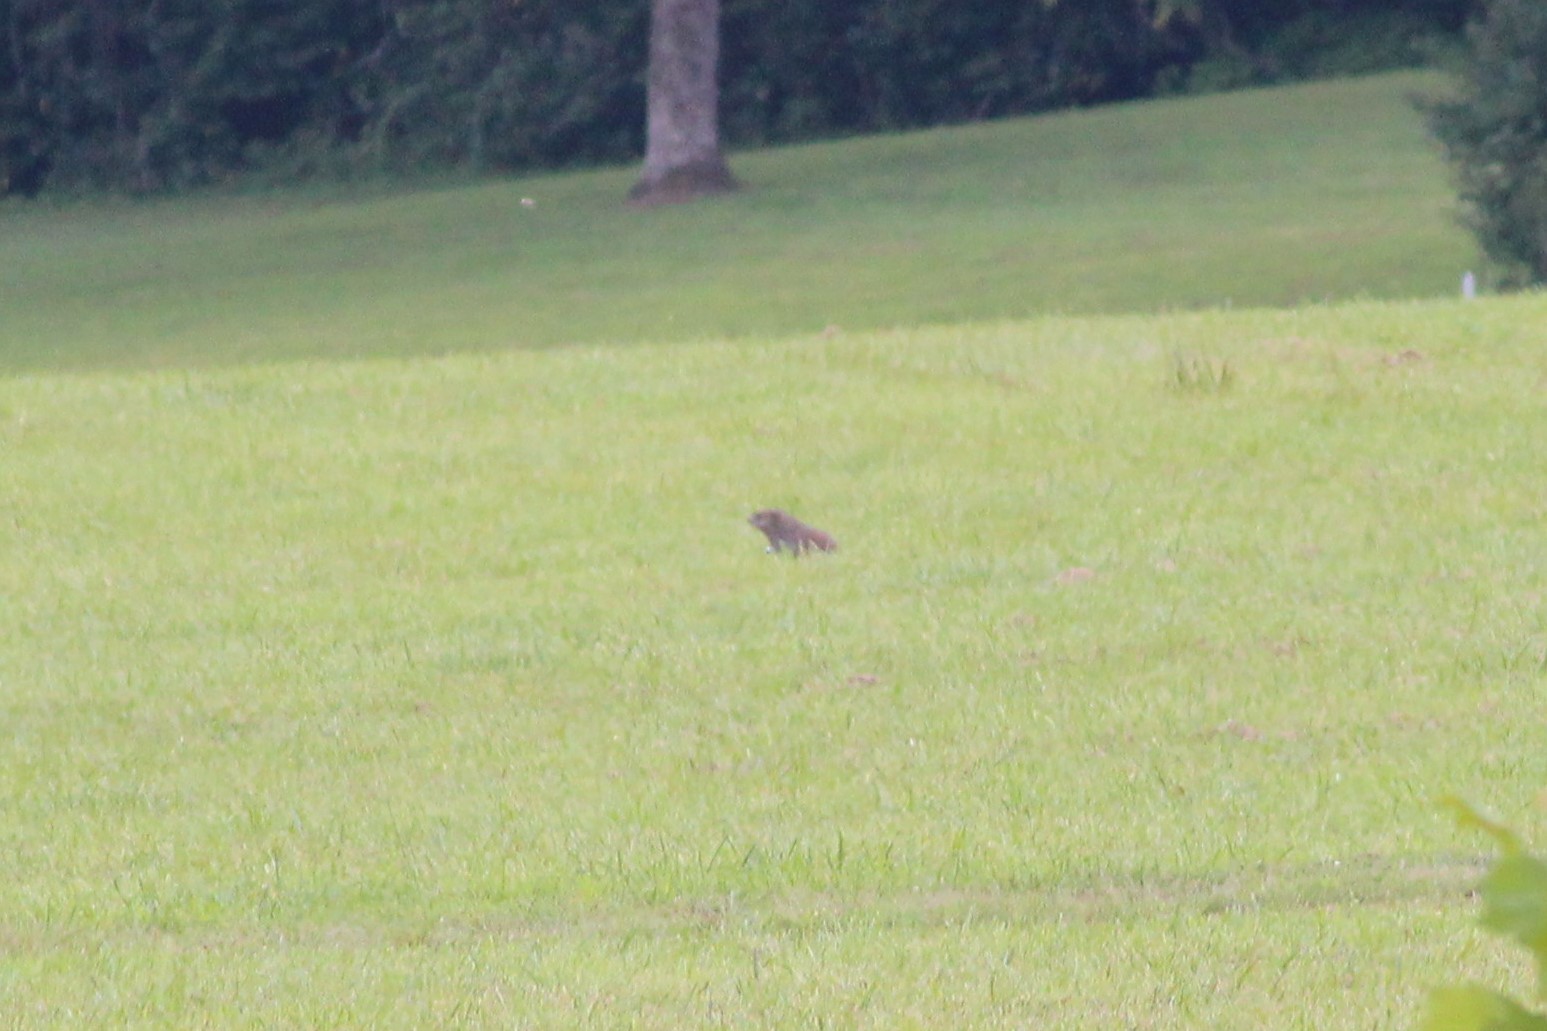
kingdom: Animalia
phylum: Chordata
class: Mammalia
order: Rodentia
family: Sciuridae
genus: Marmota
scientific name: Marmota monax
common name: Groundhog
